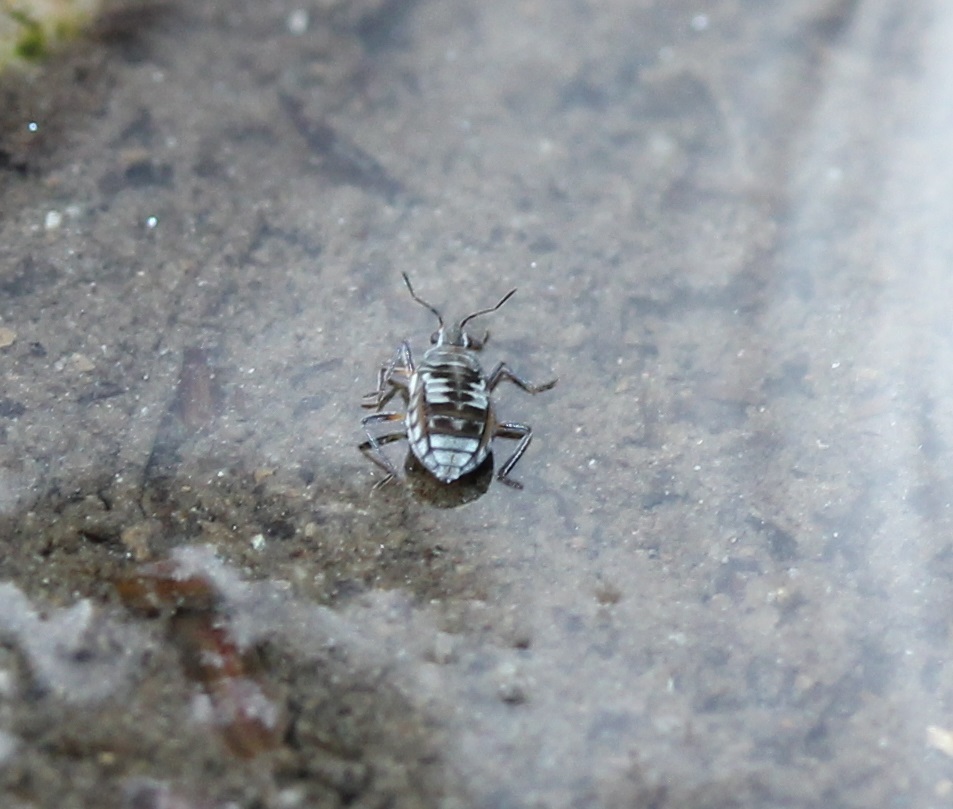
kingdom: Animalia
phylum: Arthropoda
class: Insecta
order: Hemiptera
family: Veliidae
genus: Microvelia
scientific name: Microvelia pulchella
